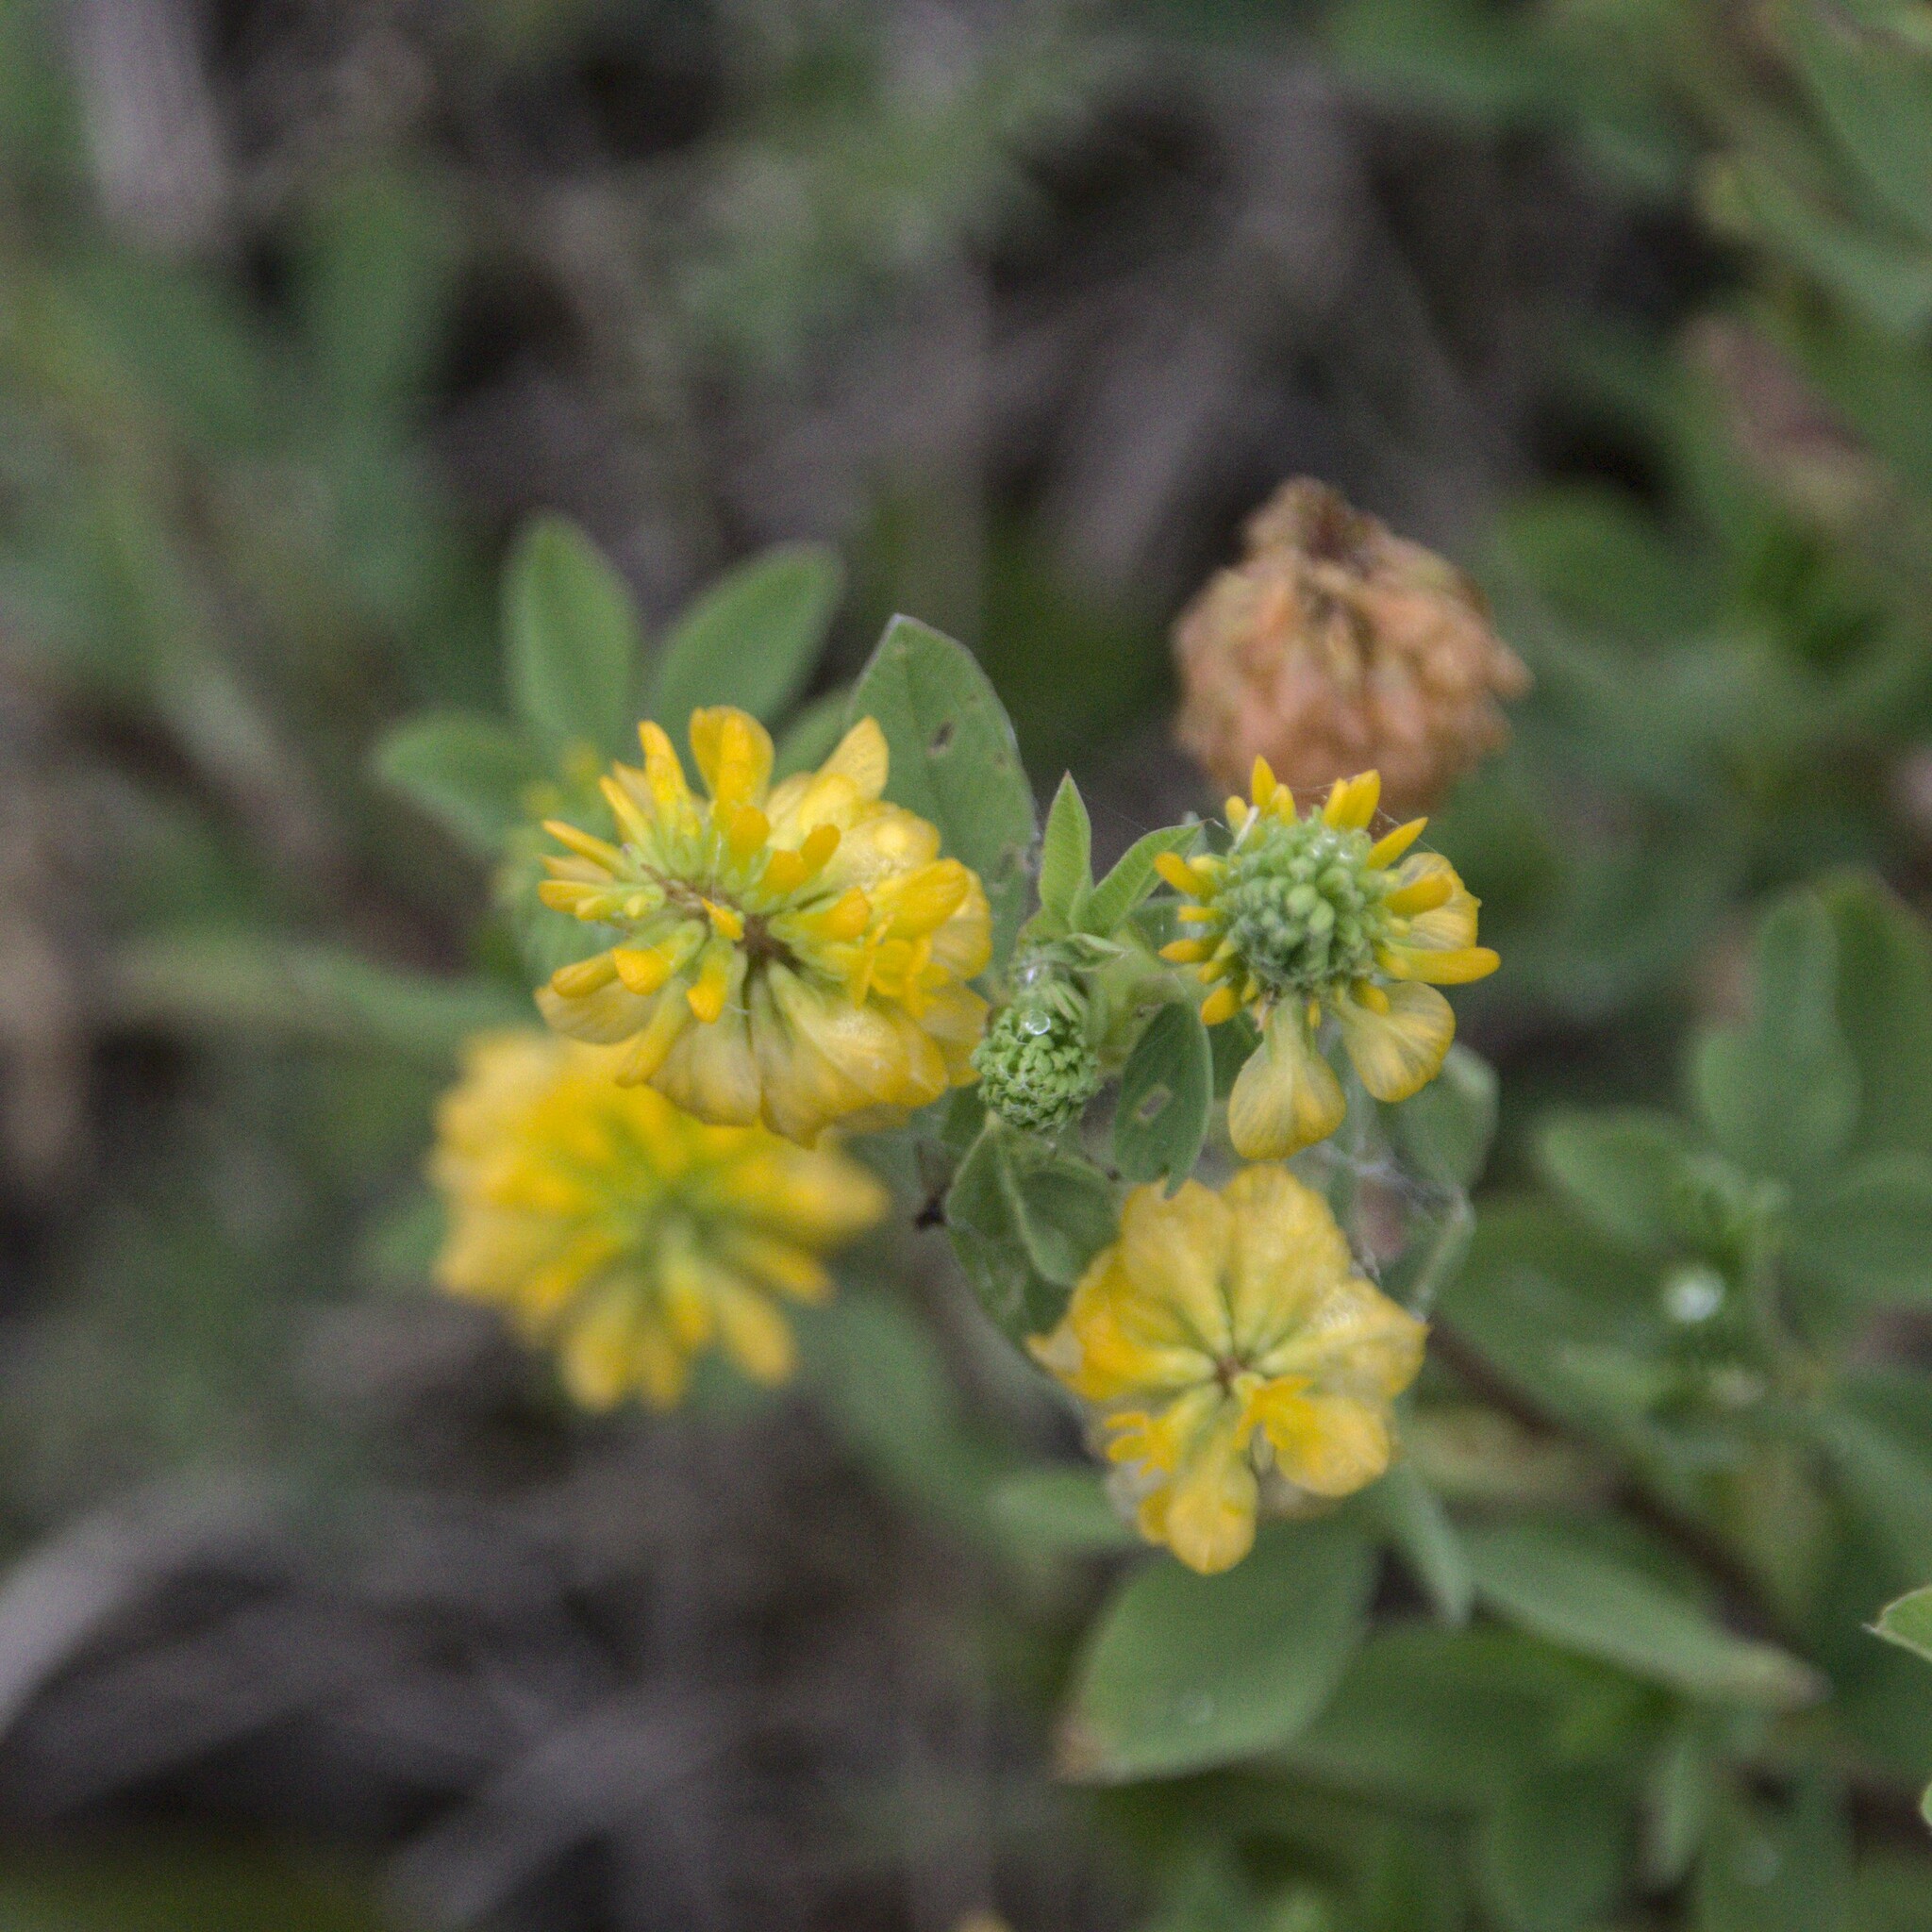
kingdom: Plantae
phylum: Tracheophyta
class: Magnoliopsida
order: Fabales
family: Fabaceae
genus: Trifolium
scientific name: Trifolium aureum
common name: Golden clover
